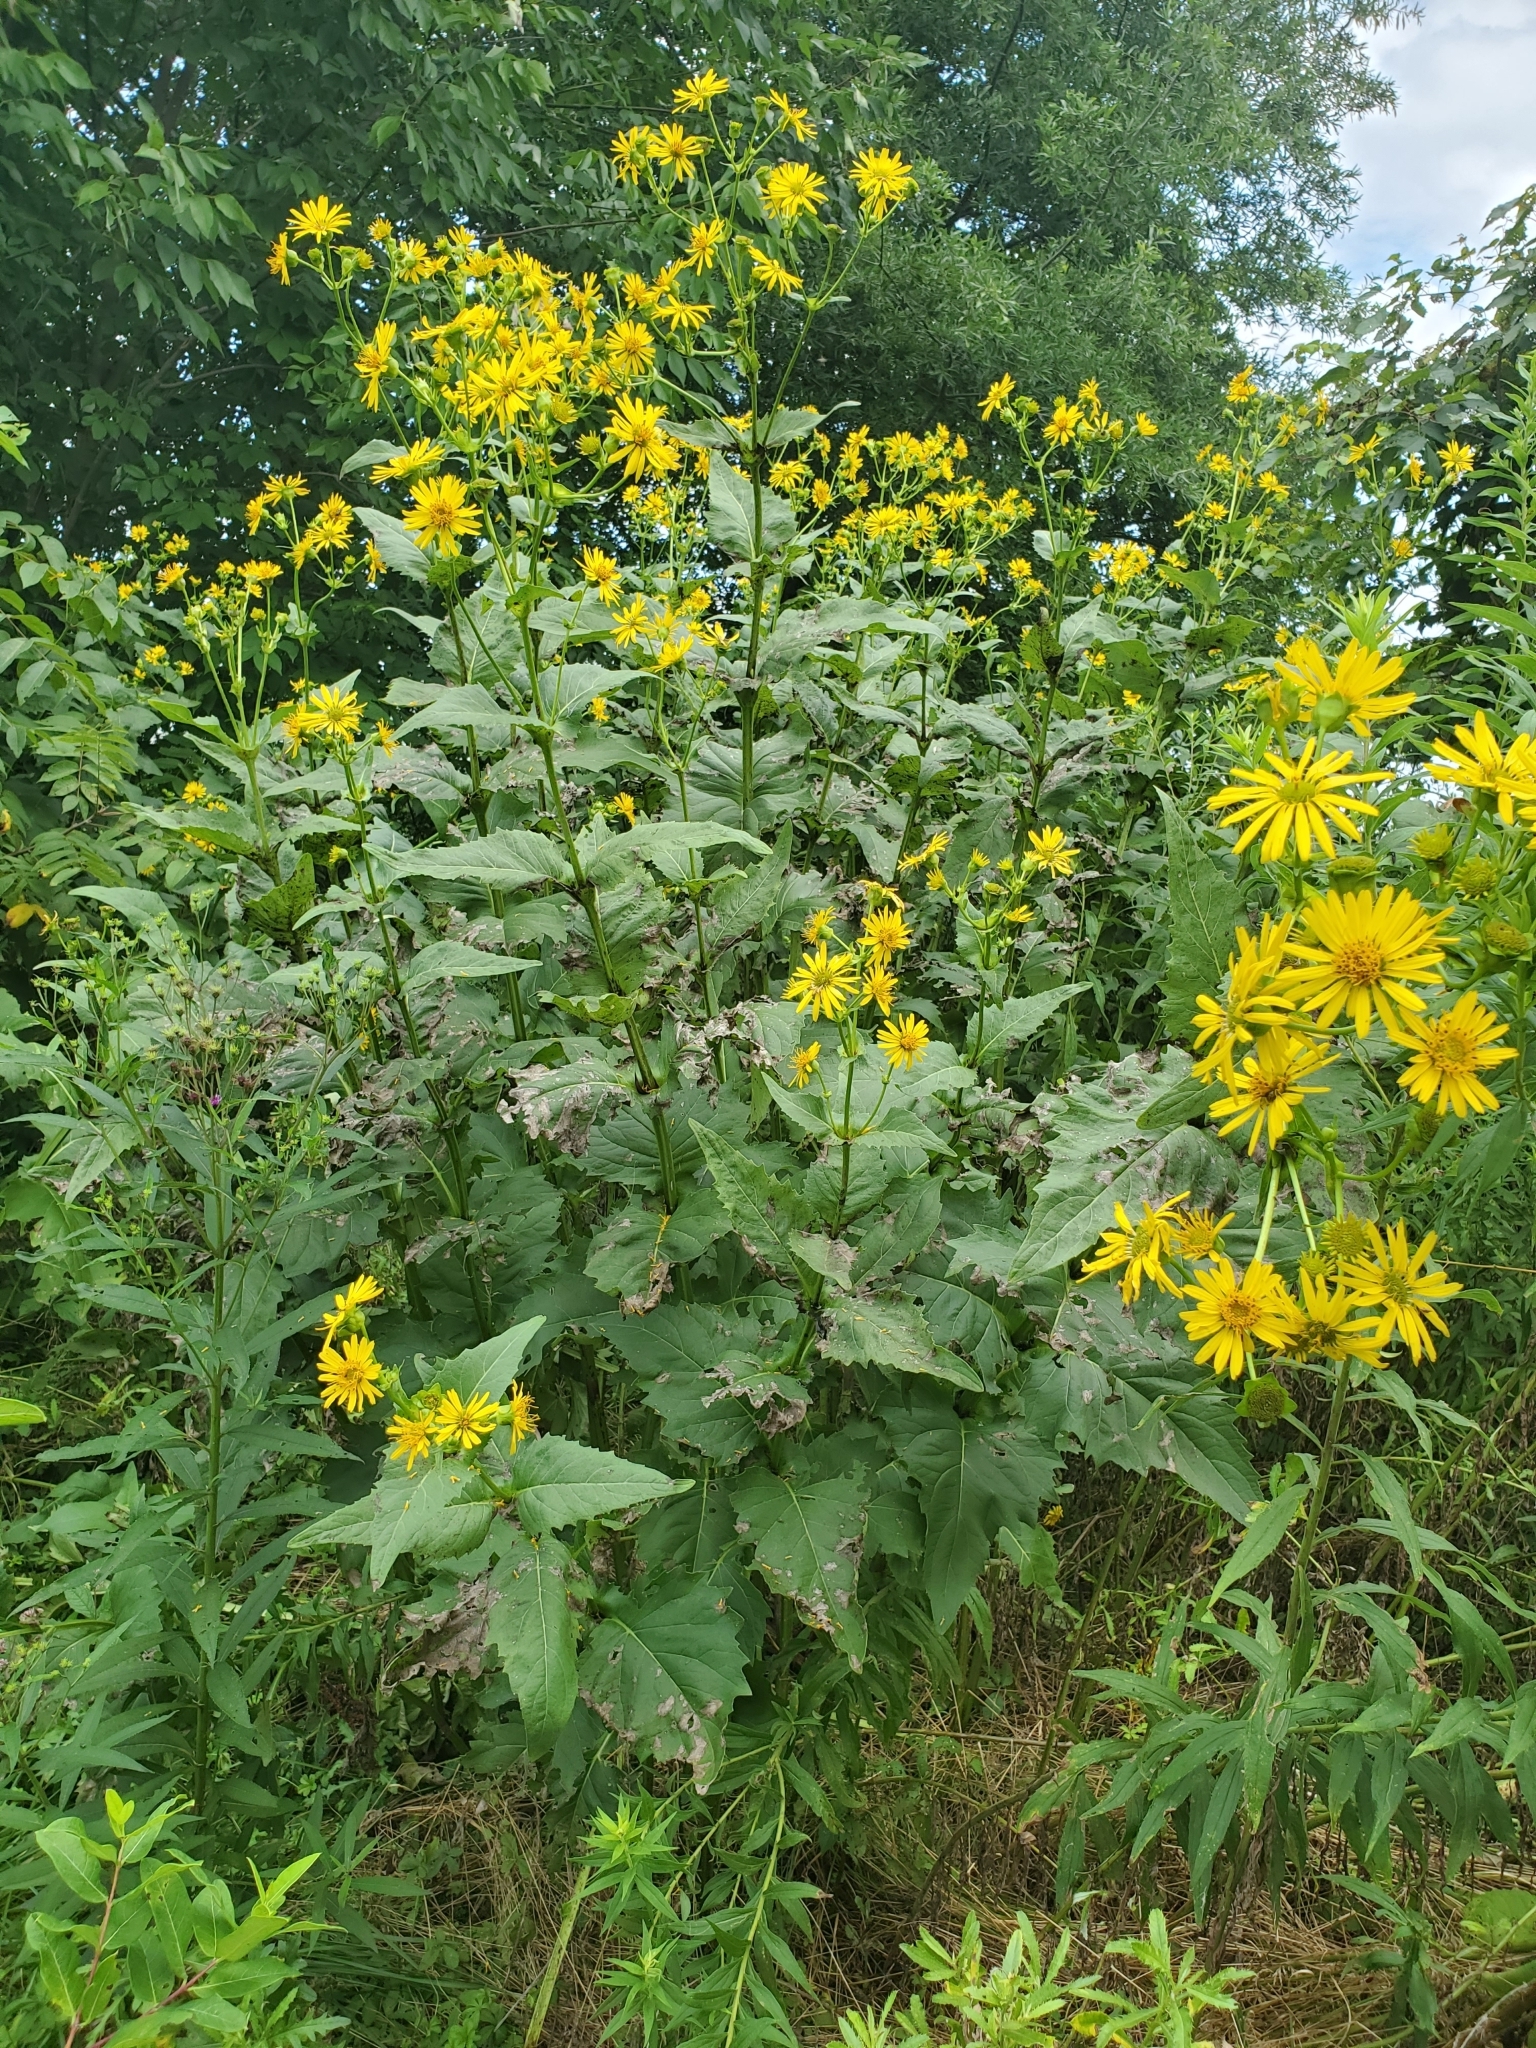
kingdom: Plantae
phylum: Tracheophyta
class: Magnoliopsida
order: Asterales
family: Asteraceae
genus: Silphium
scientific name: Silphium perfoliatum
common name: Cup-plant
